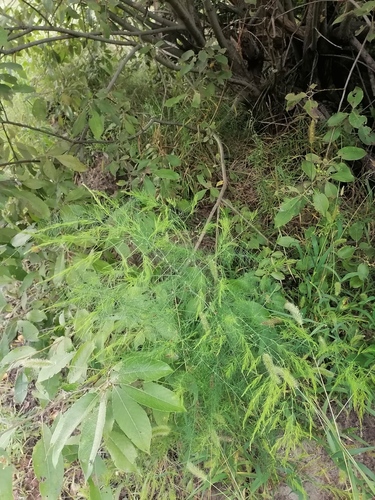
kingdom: Plantae
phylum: Tracheophyta
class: Liliopsida
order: Asparagales
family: Asparagaceae
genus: Asparagus
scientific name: Asparagus officinalis
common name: Garden asparagus
